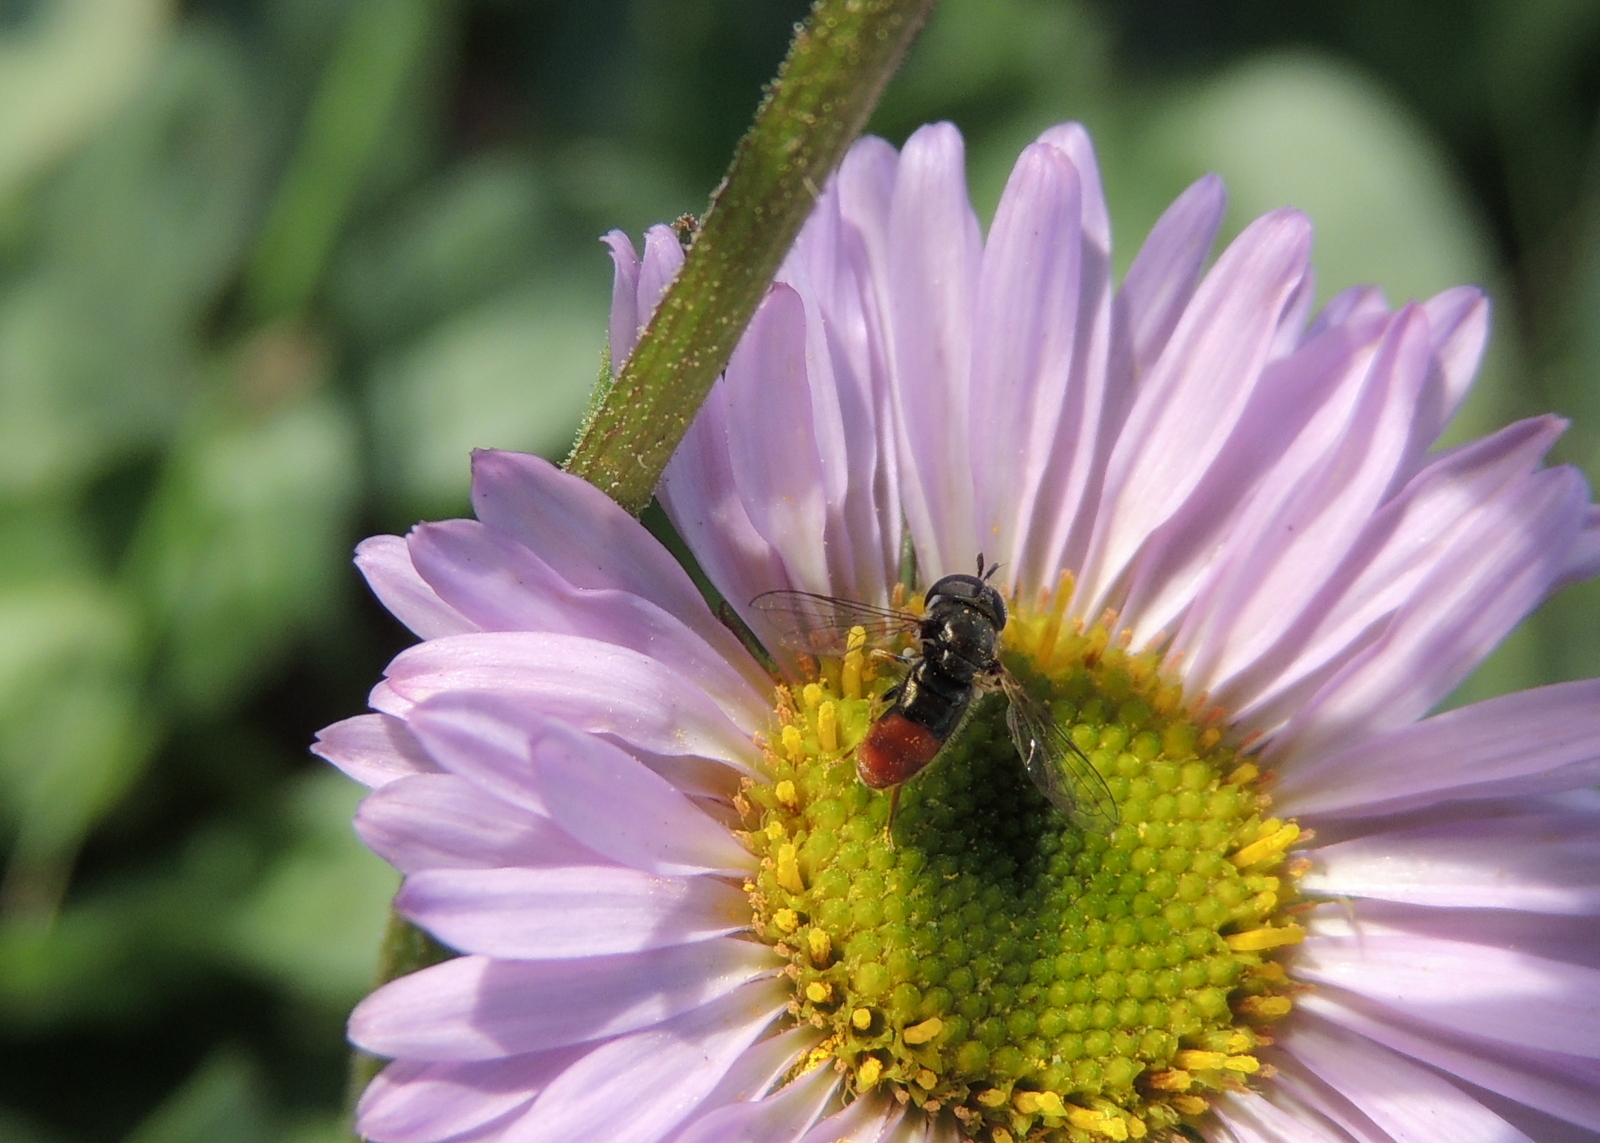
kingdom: Animalia
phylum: Arthropoda
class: Insecta
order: Diptera
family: Syrphidae
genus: Paragus
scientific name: Paragus haemorrhous
